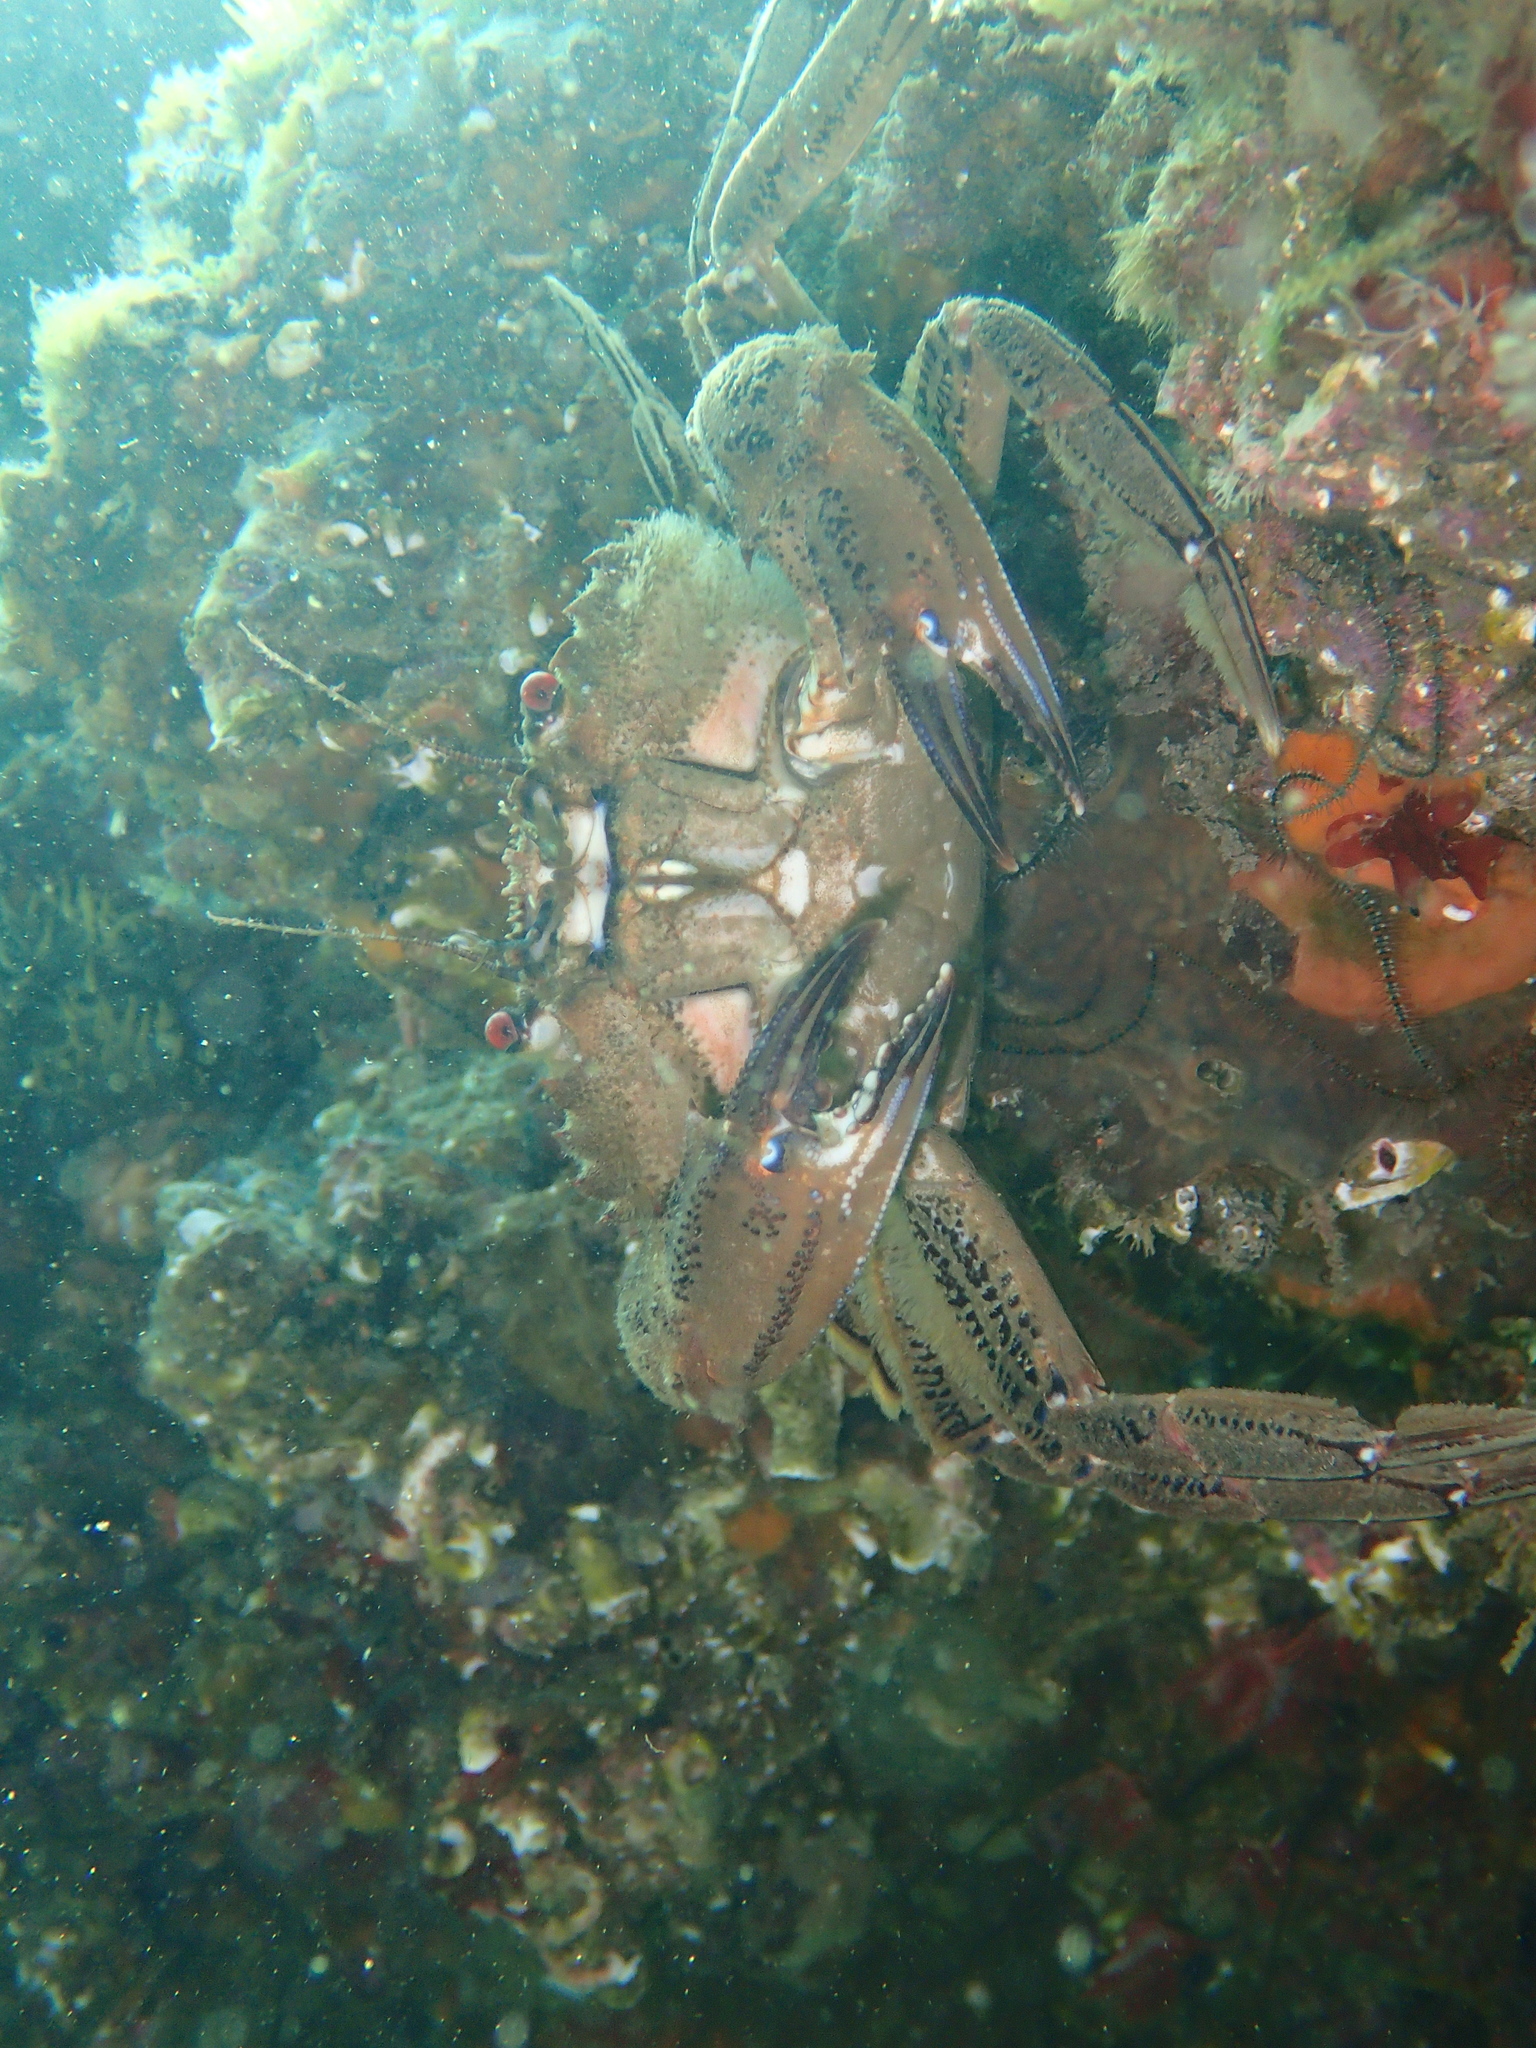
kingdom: Animalia
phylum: Arthropoda
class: Malacostraca
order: Decapoda
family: Polybiidae
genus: Necora
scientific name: Necora puber
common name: Velvet swimming crab
